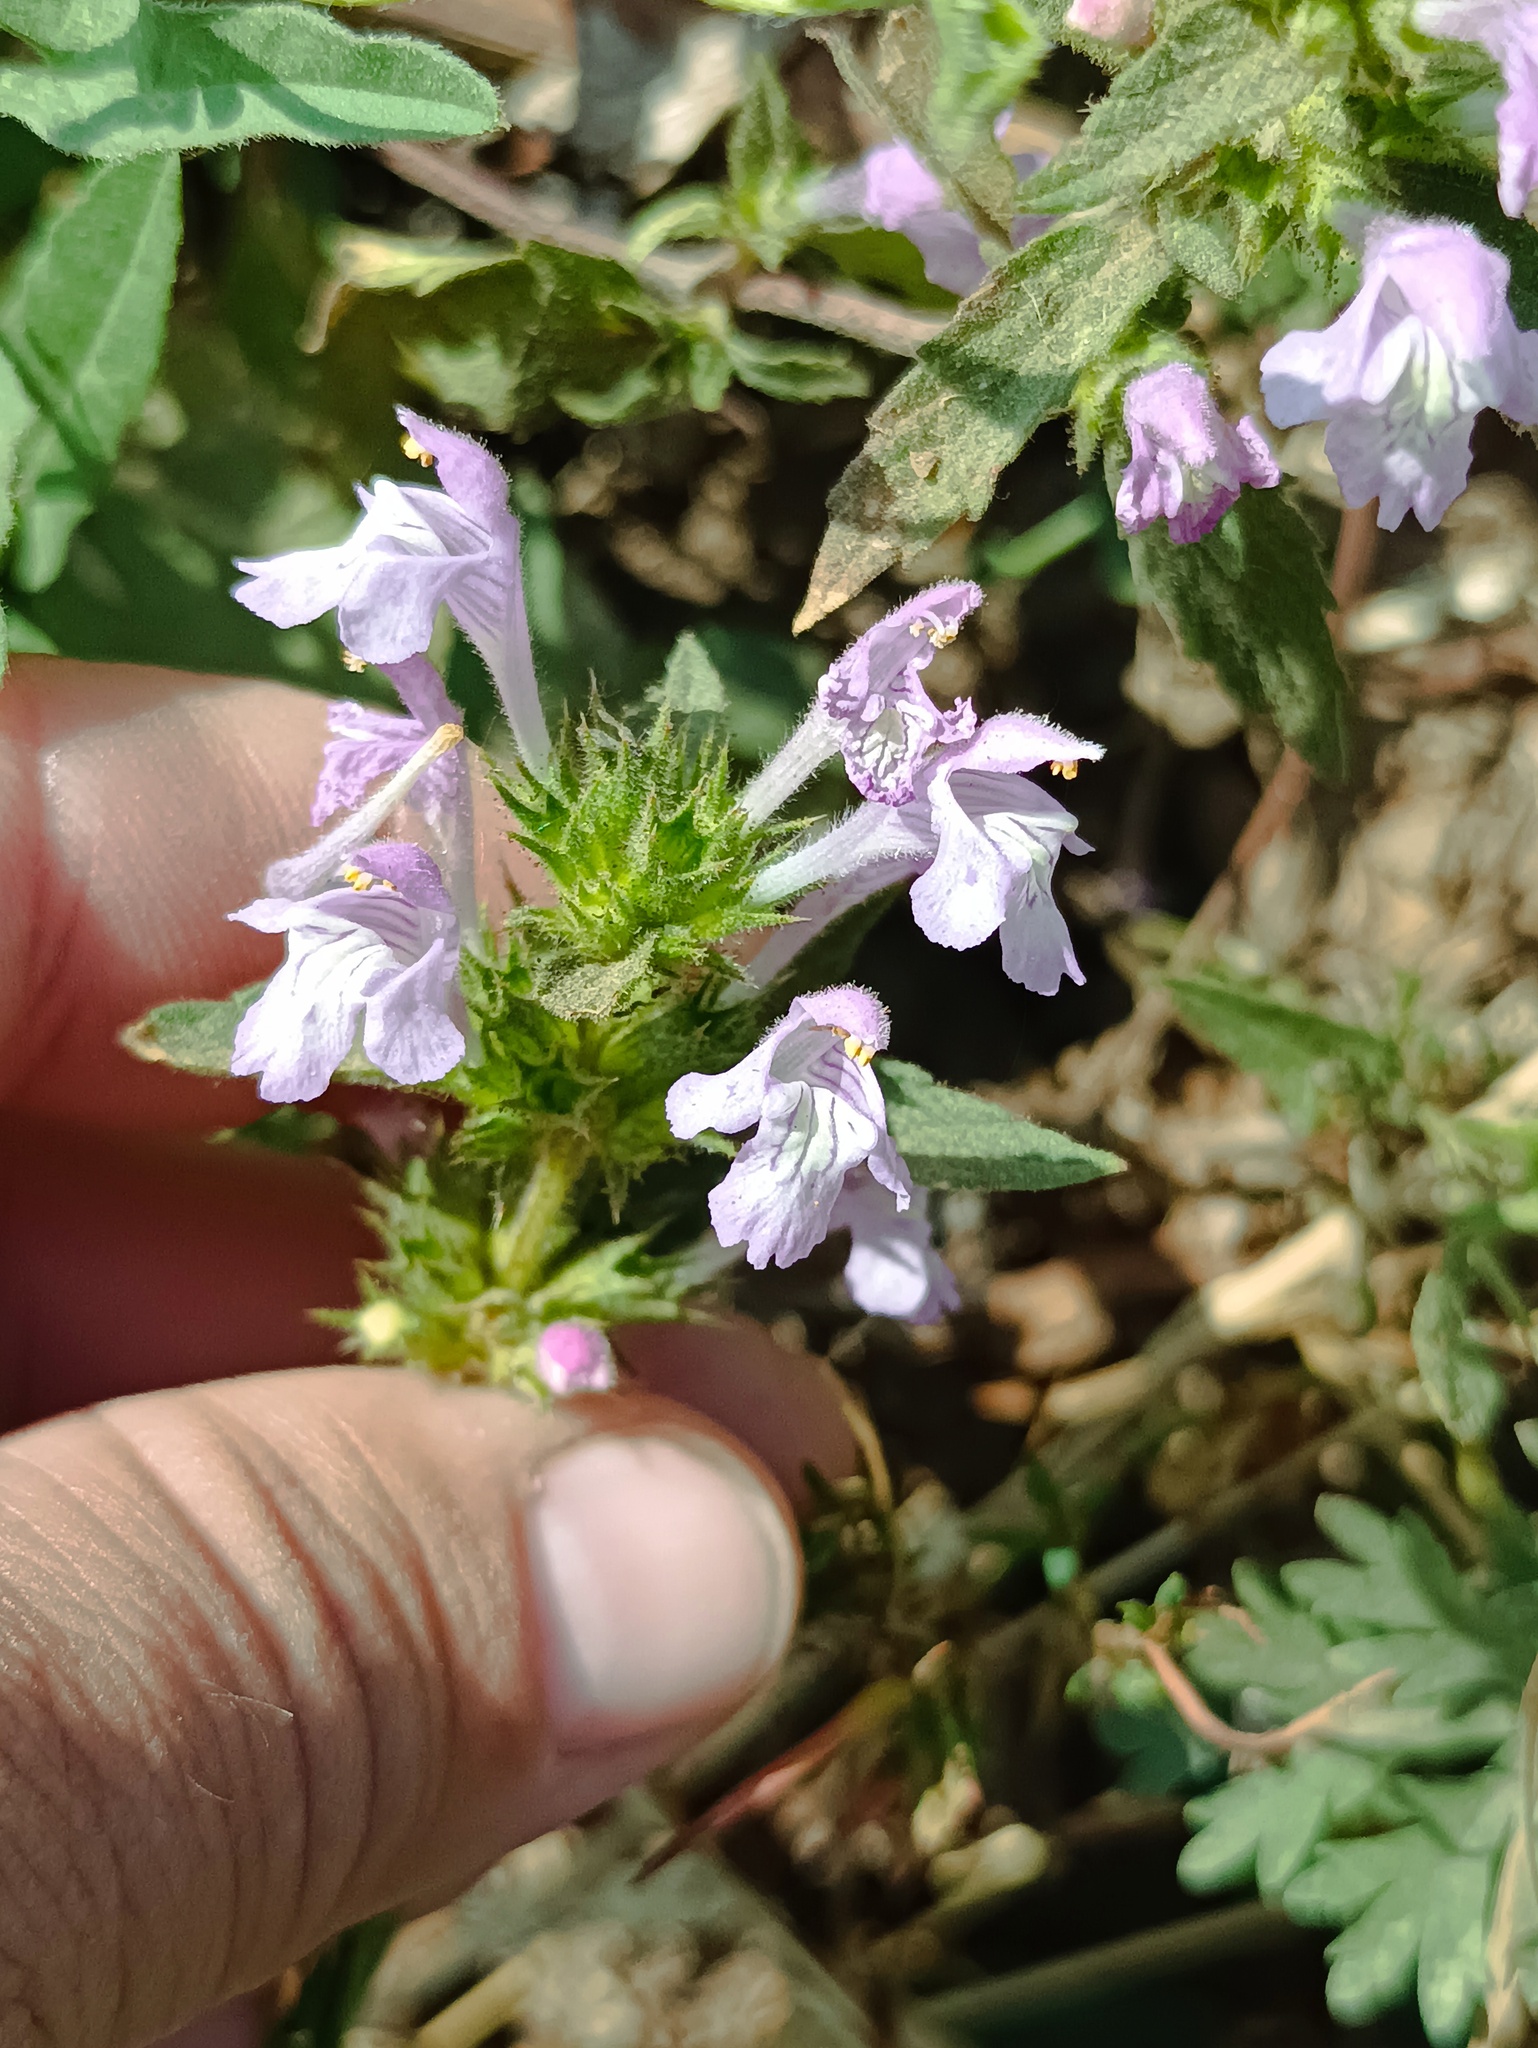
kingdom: Plantae
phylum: Tracheophyta
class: Magnoliopsida
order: Lamiales
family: Lamiaceae
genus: Galeopsis
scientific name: Galeopsis ladanum
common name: Broad-leaved hemp-nettle
